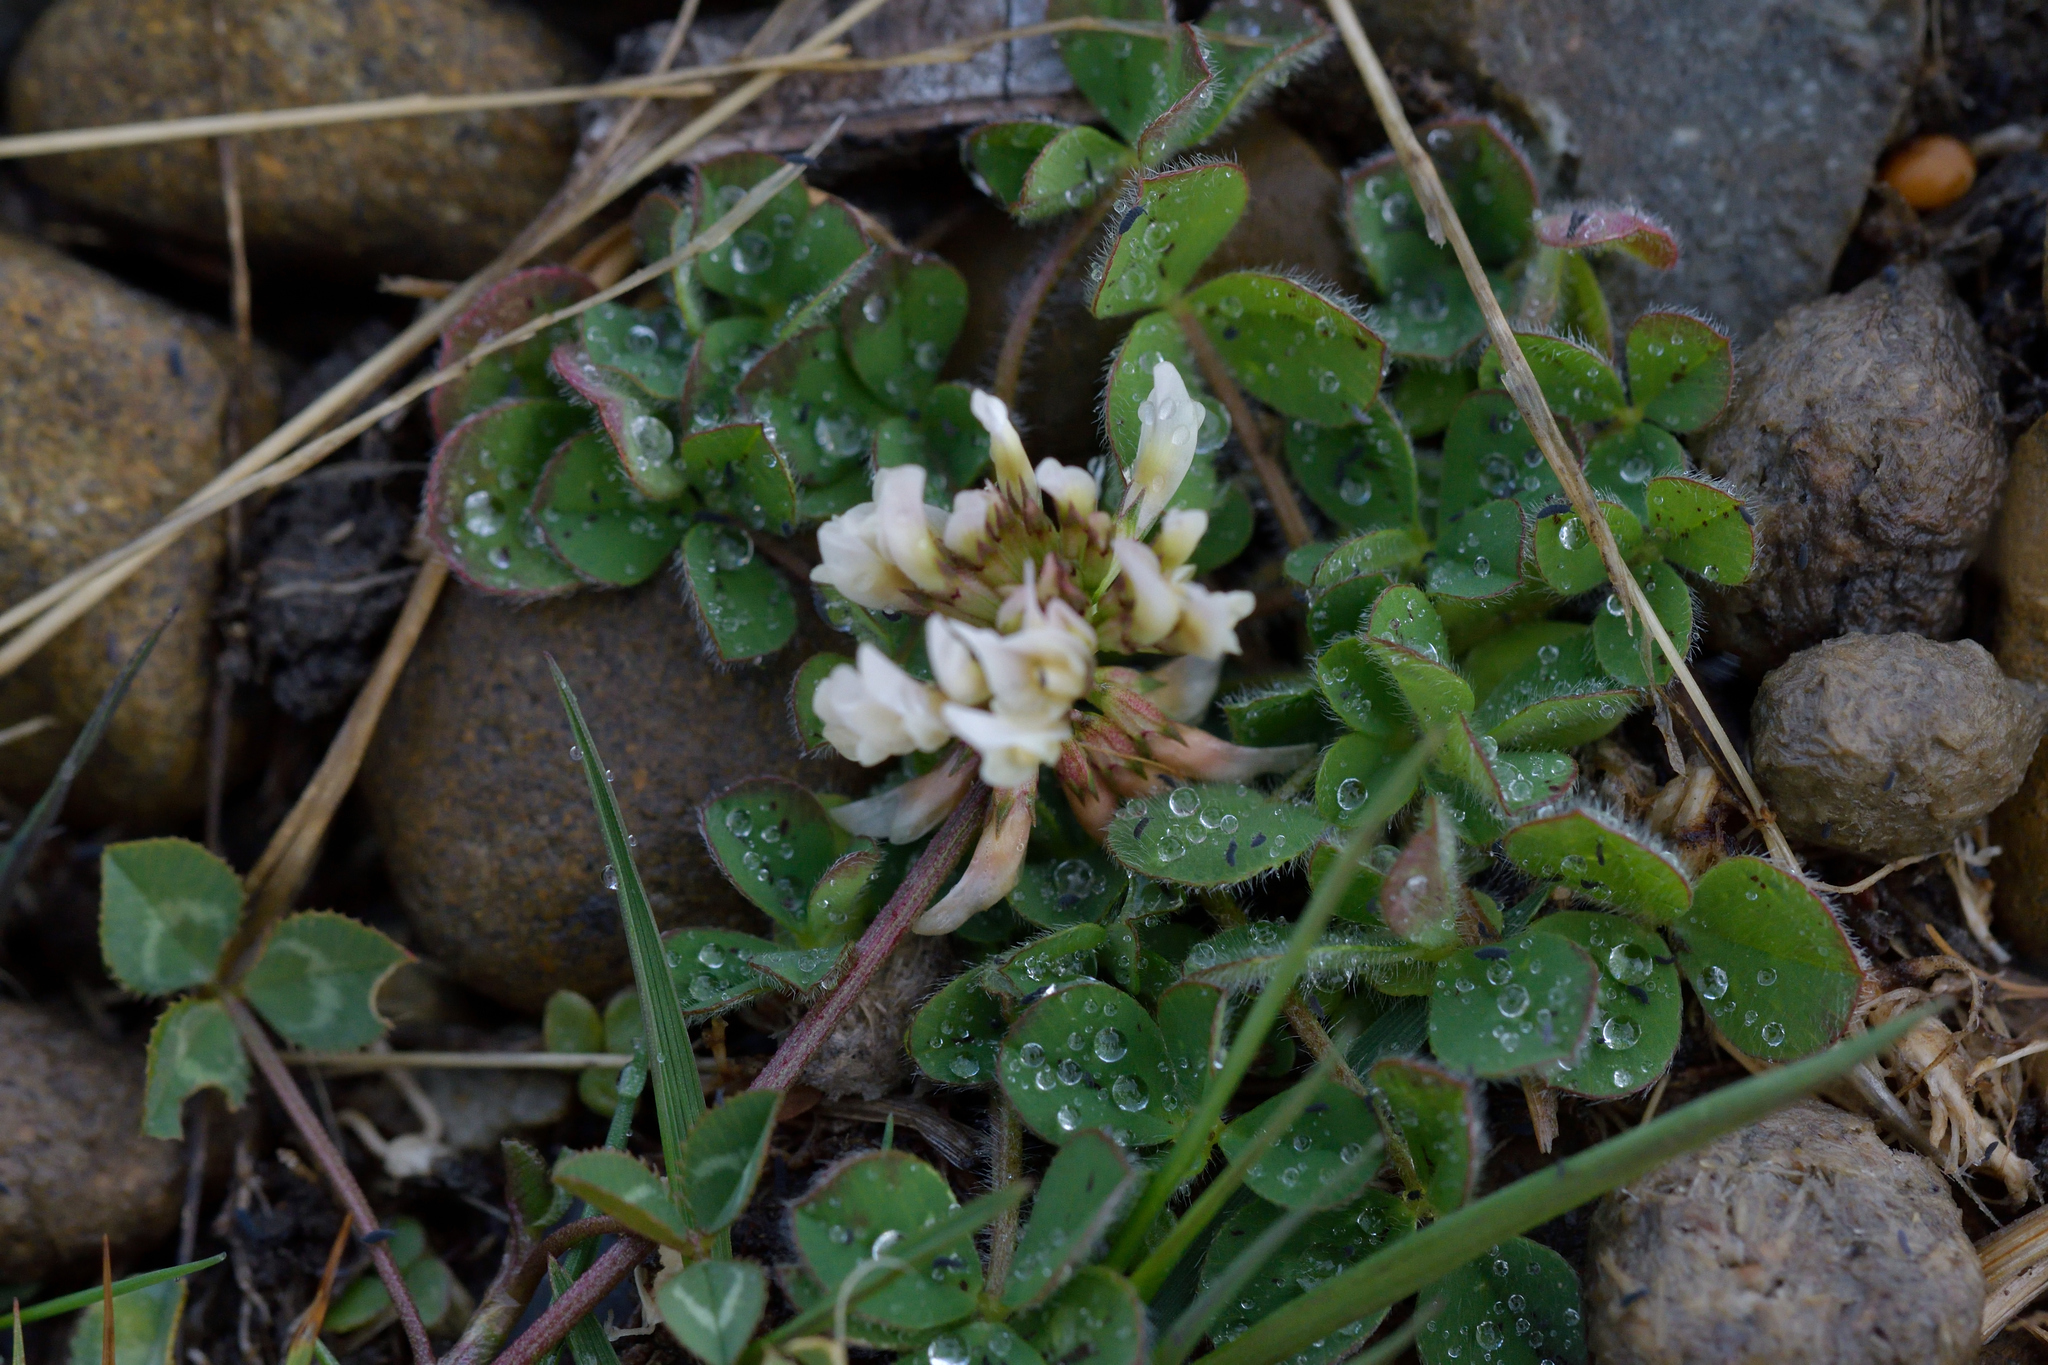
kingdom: Plantae
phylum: Tracheophyta
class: Magnoliopsida
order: Fabales
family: Fabaceae
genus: Trifolium
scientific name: Trifolium repens
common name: White clover
